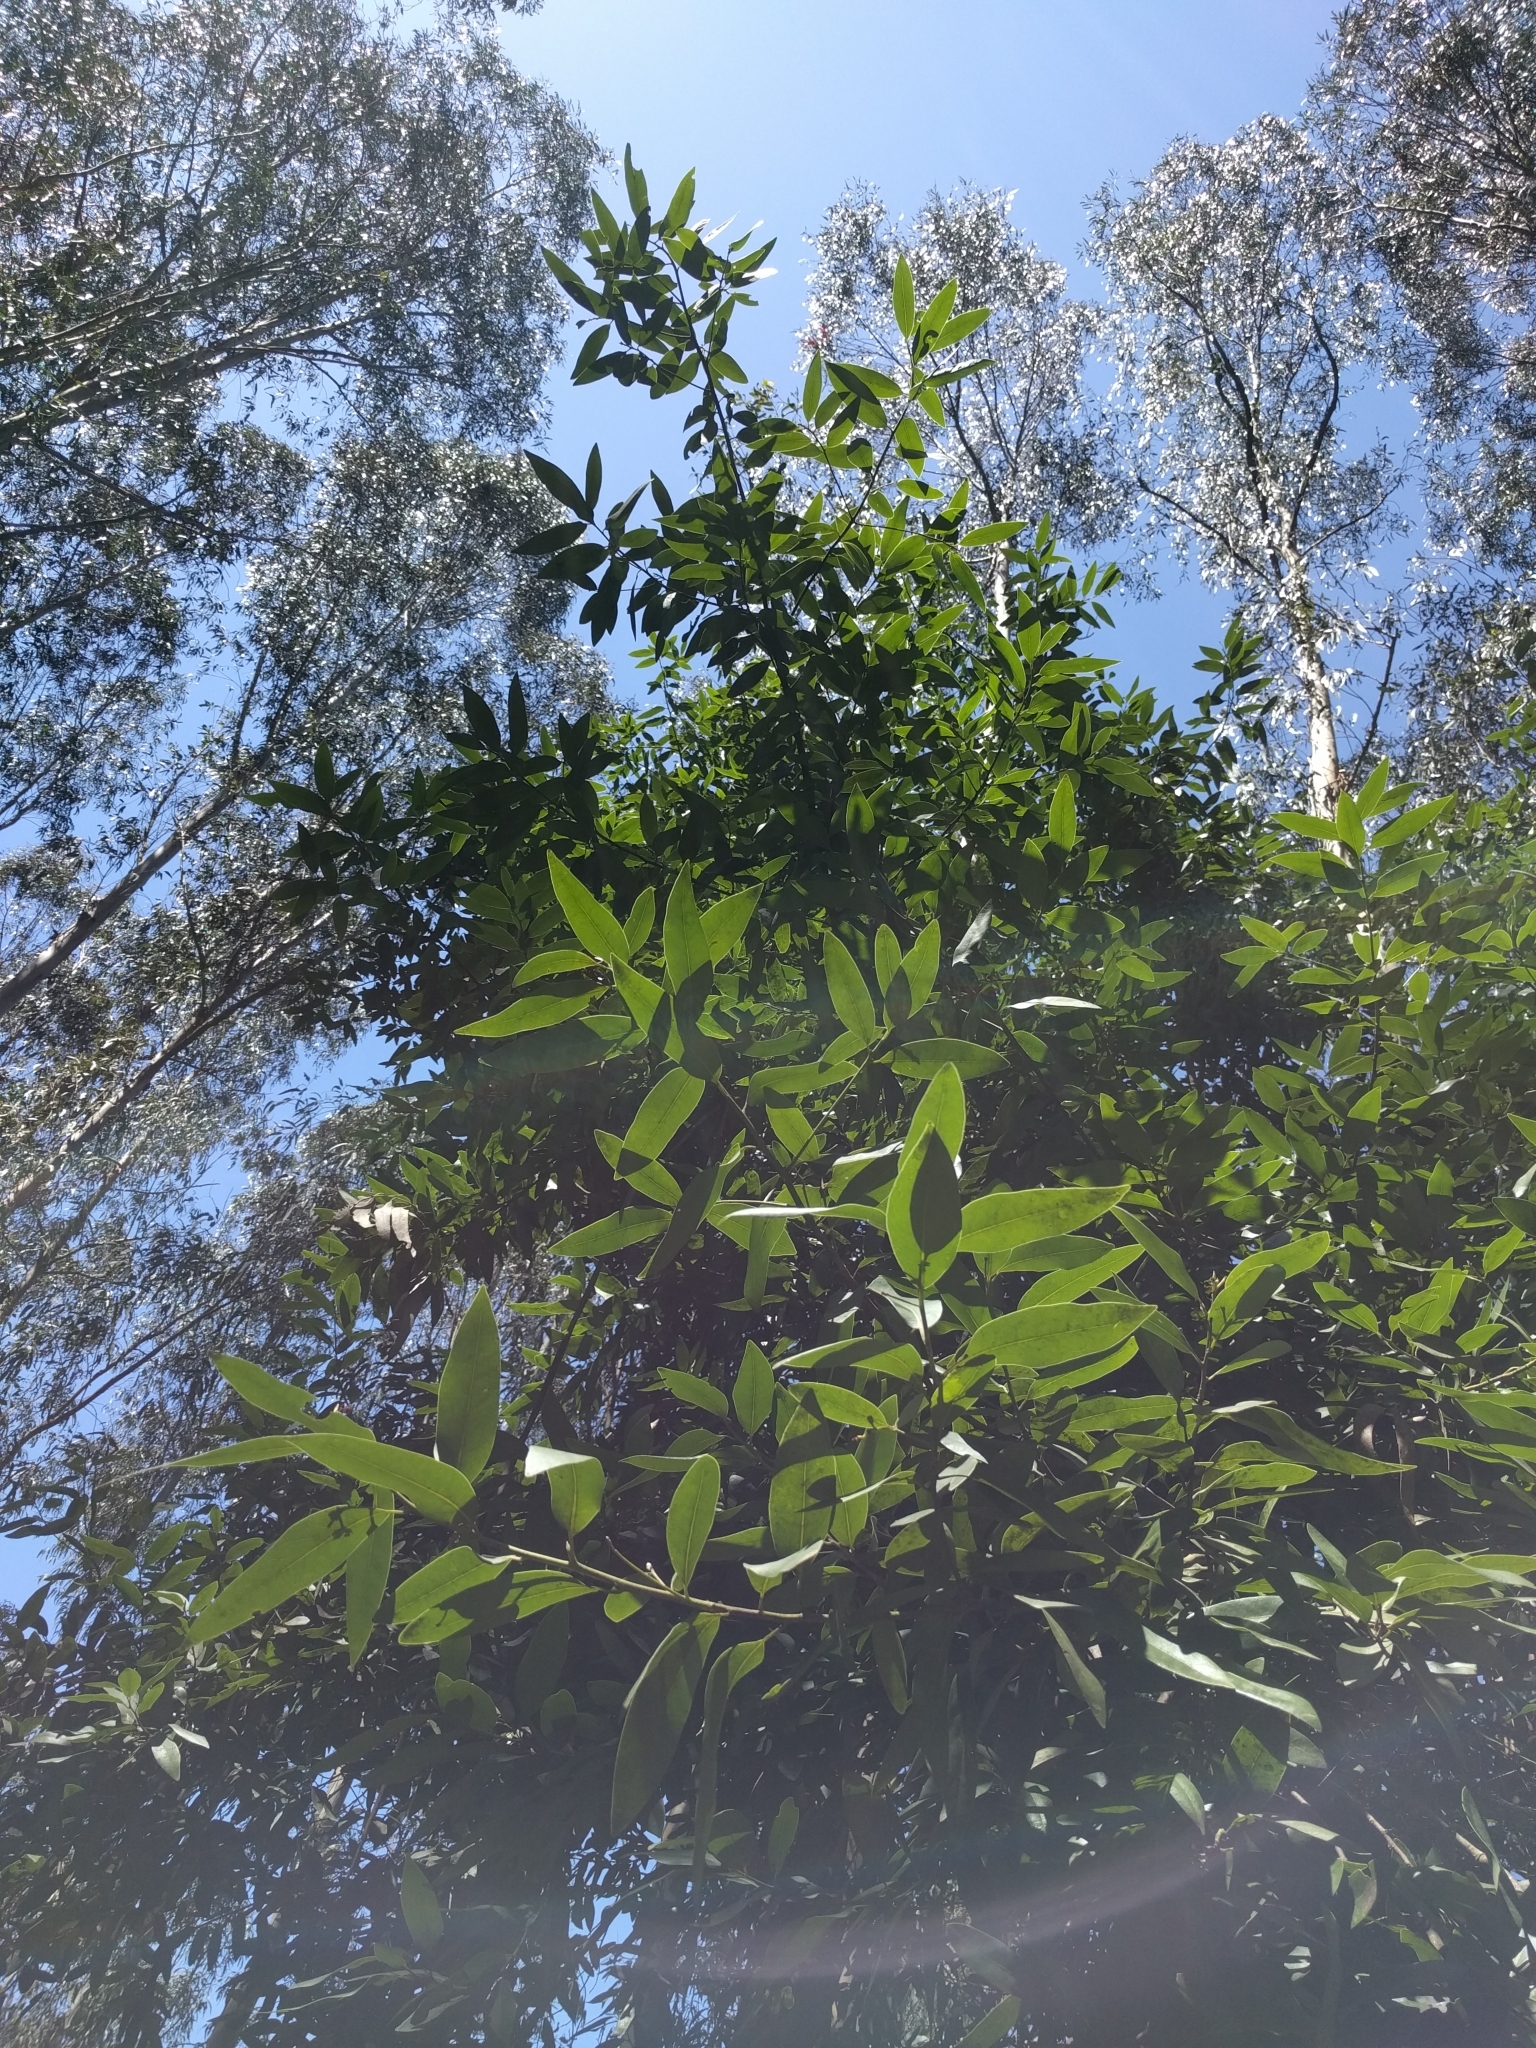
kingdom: Plantae
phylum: Tracheophyta
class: Magnoliopsida
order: Laurales
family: Lauraceae
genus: Umbellularia
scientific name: Umbellularia californica
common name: California bay
